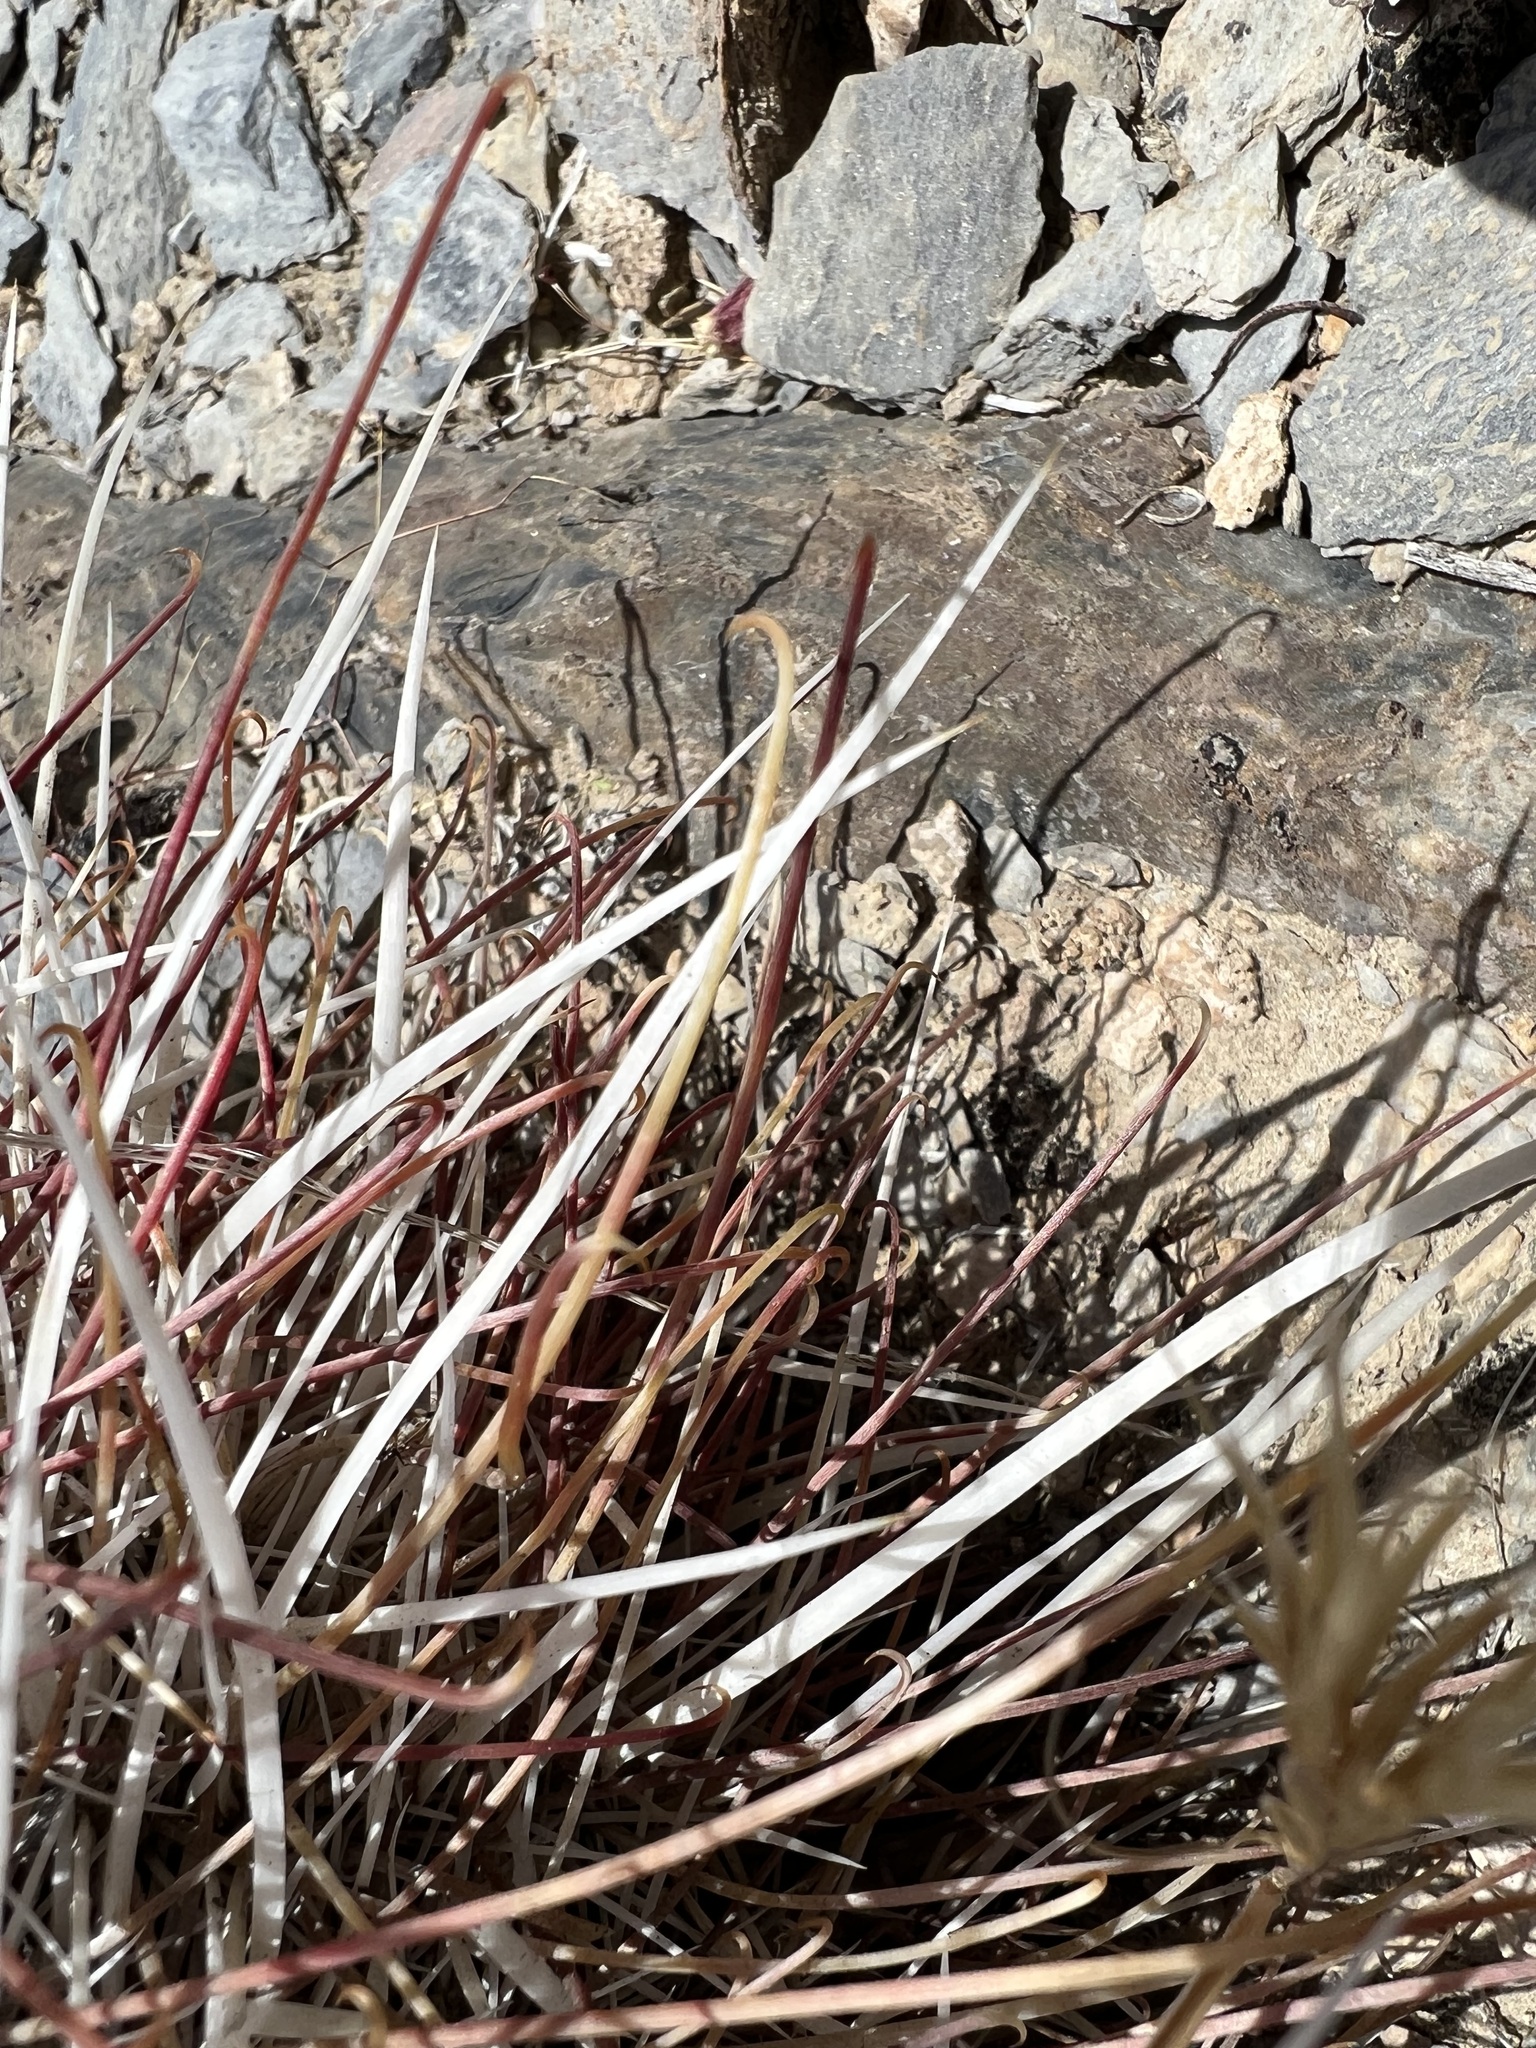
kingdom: Plantae
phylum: Tracheophyta
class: Magnoliopsida
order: Caryophyllales
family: Cactaceae
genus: Sclerocactus
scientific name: Sclerocactus polyancistrus
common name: Mohave fishhook cactus
